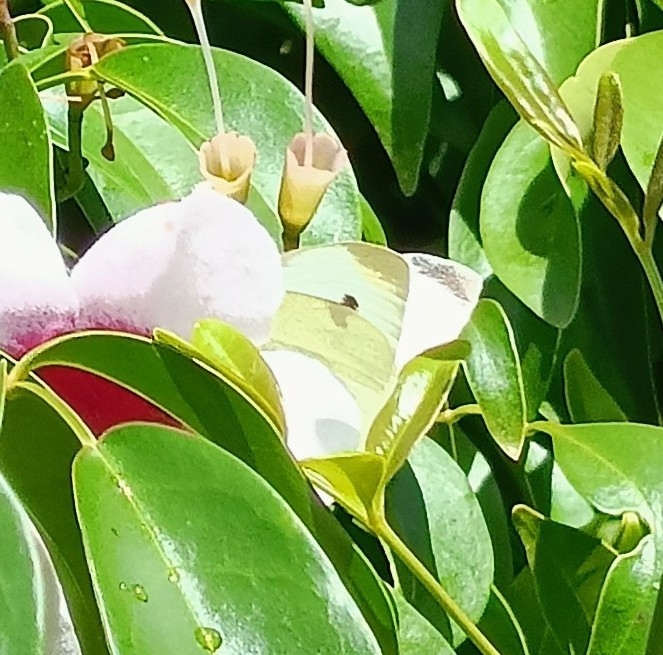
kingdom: Animalia
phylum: Arthropoda
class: Insecta
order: Lepidoptera
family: Pieridae
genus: Pieris
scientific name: Pieris rapae
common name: Small white
